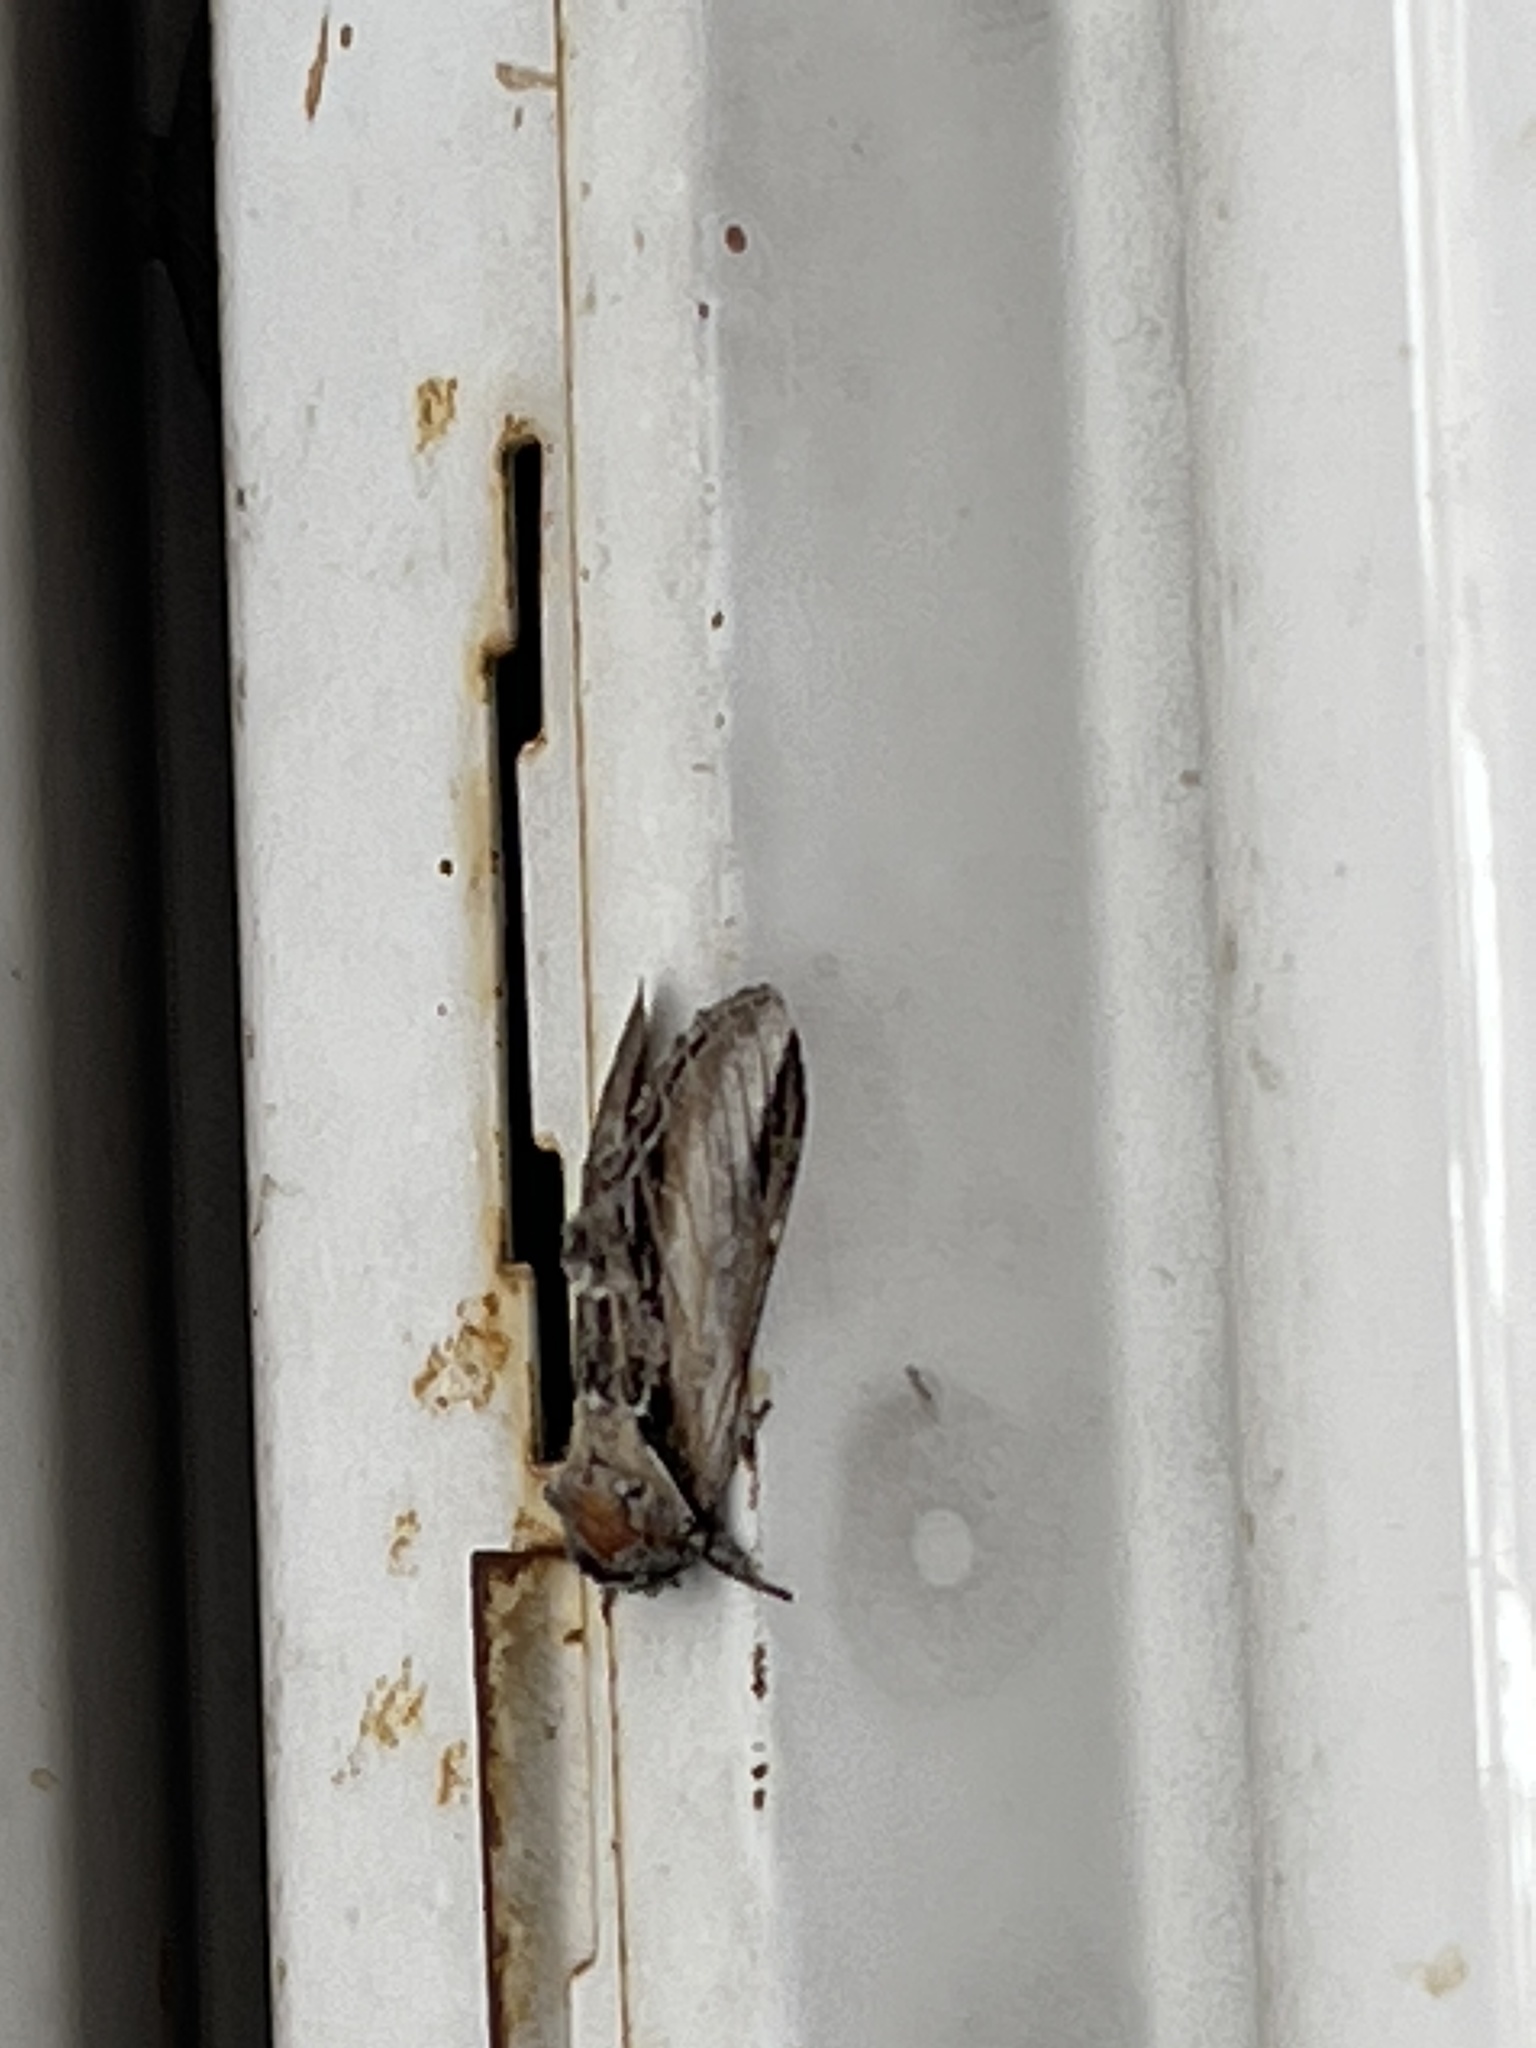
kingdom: Animalia
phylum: Arthropoda
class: Insecta
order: Lepidoptera
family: Notodontidae
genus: Pheosia
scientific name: Pheosia rimosa
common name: Black-rimmed prominent
